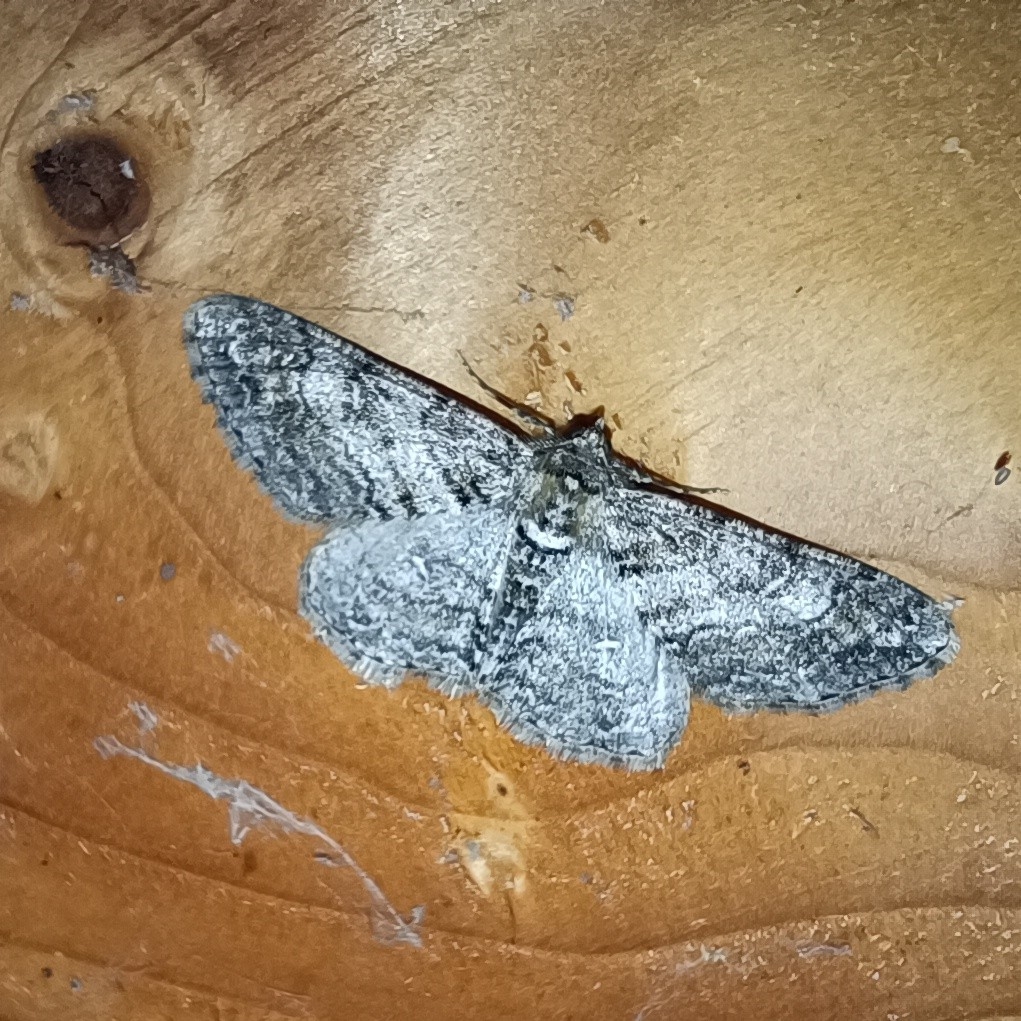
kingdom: Animalia
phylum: Arthropoda
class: Insecta
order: Lepidoptera
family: Geometridae
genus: Cleora
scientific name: Cleora cinctaria
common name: Ringed carpet
